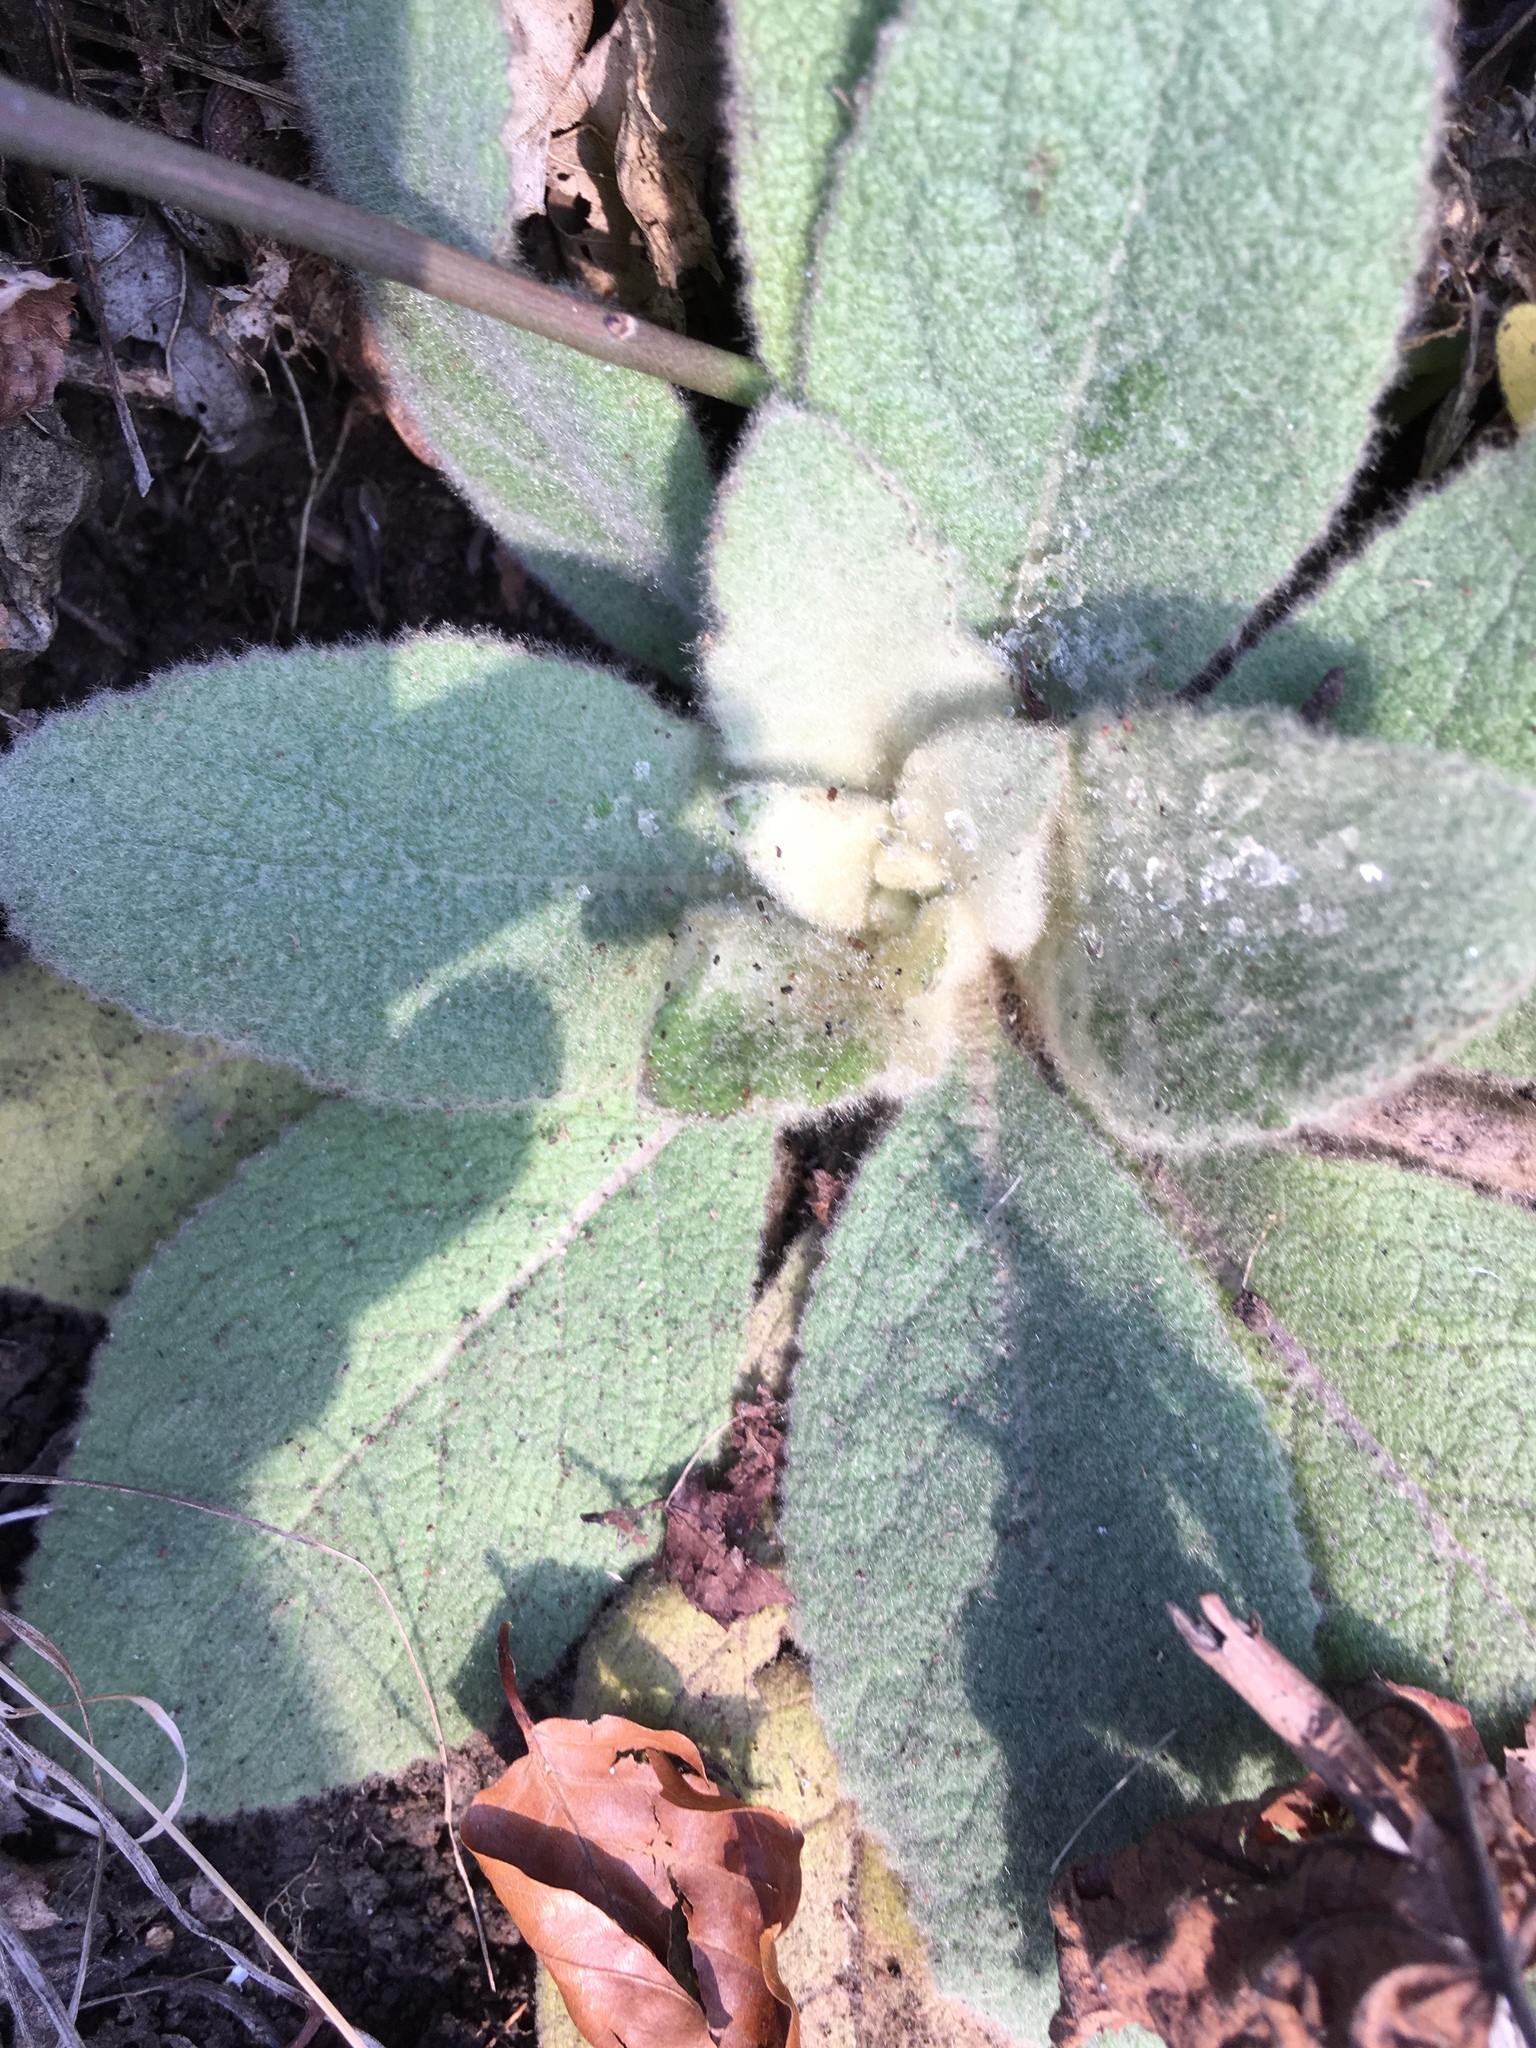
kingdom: Plantae
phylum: Tracheophyta
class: Magnoliopsida
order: Lamiales
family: Scrophulariaceae
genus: Verbascum
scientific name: Verbascum thapsus
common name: Common mullein
